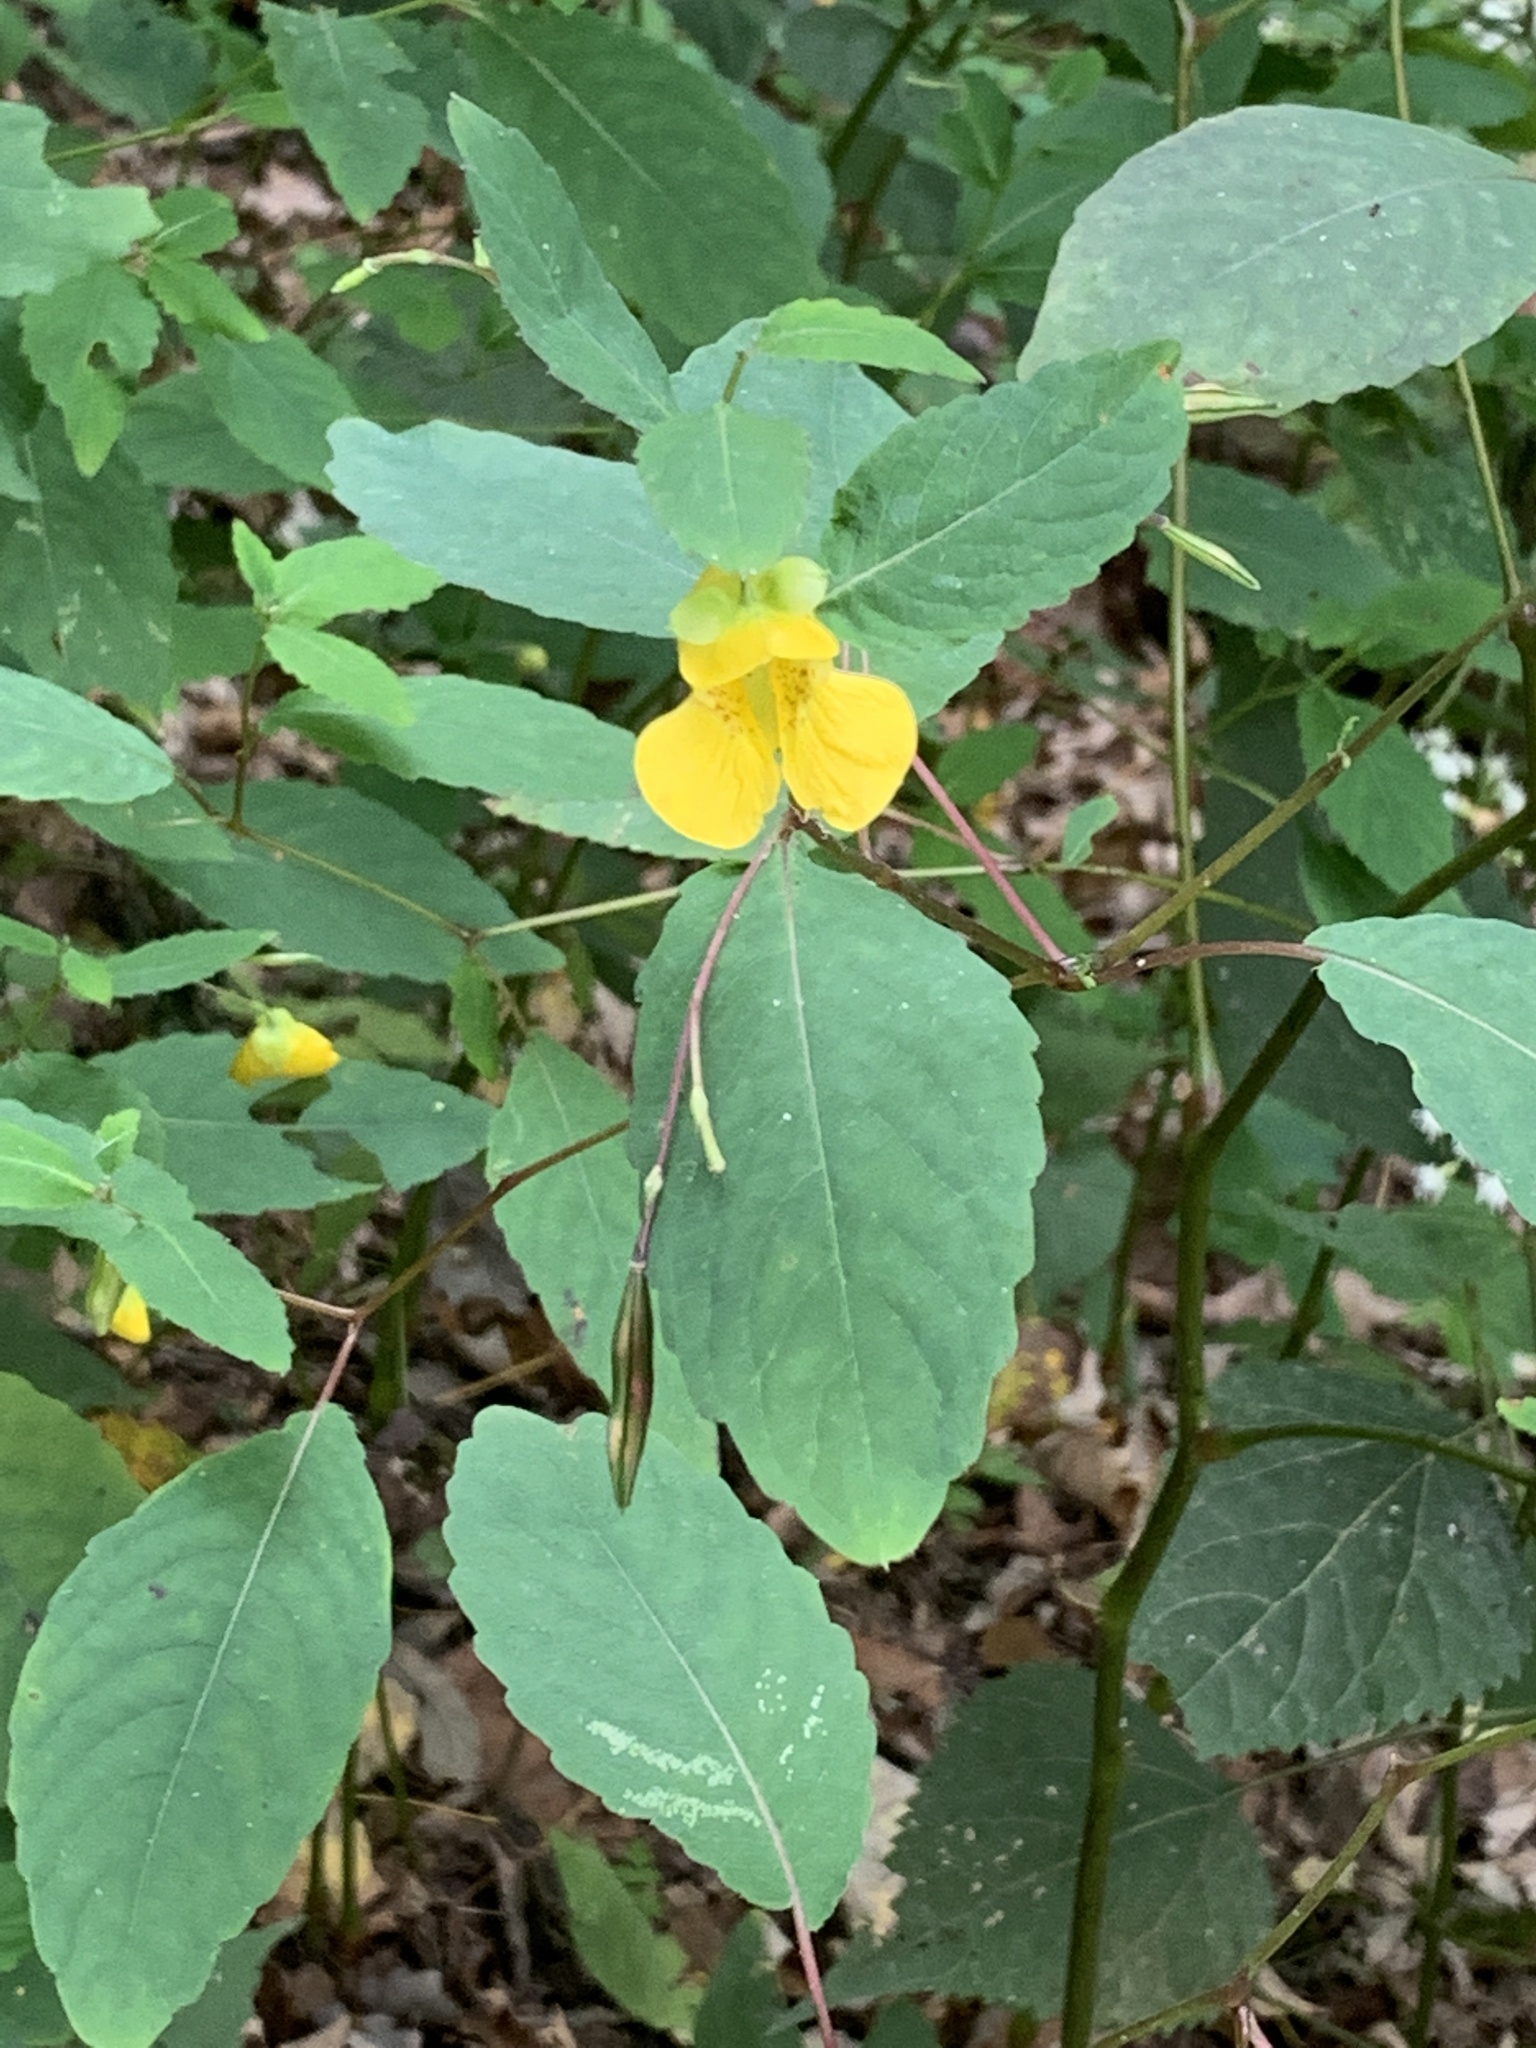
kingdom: Plantae
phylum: Tracheophyta
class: Magnoliopsida
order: Ericales
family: Balsaminaceae
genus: Impatiens
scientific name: Impatiens pallida
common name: Pale snapweed
